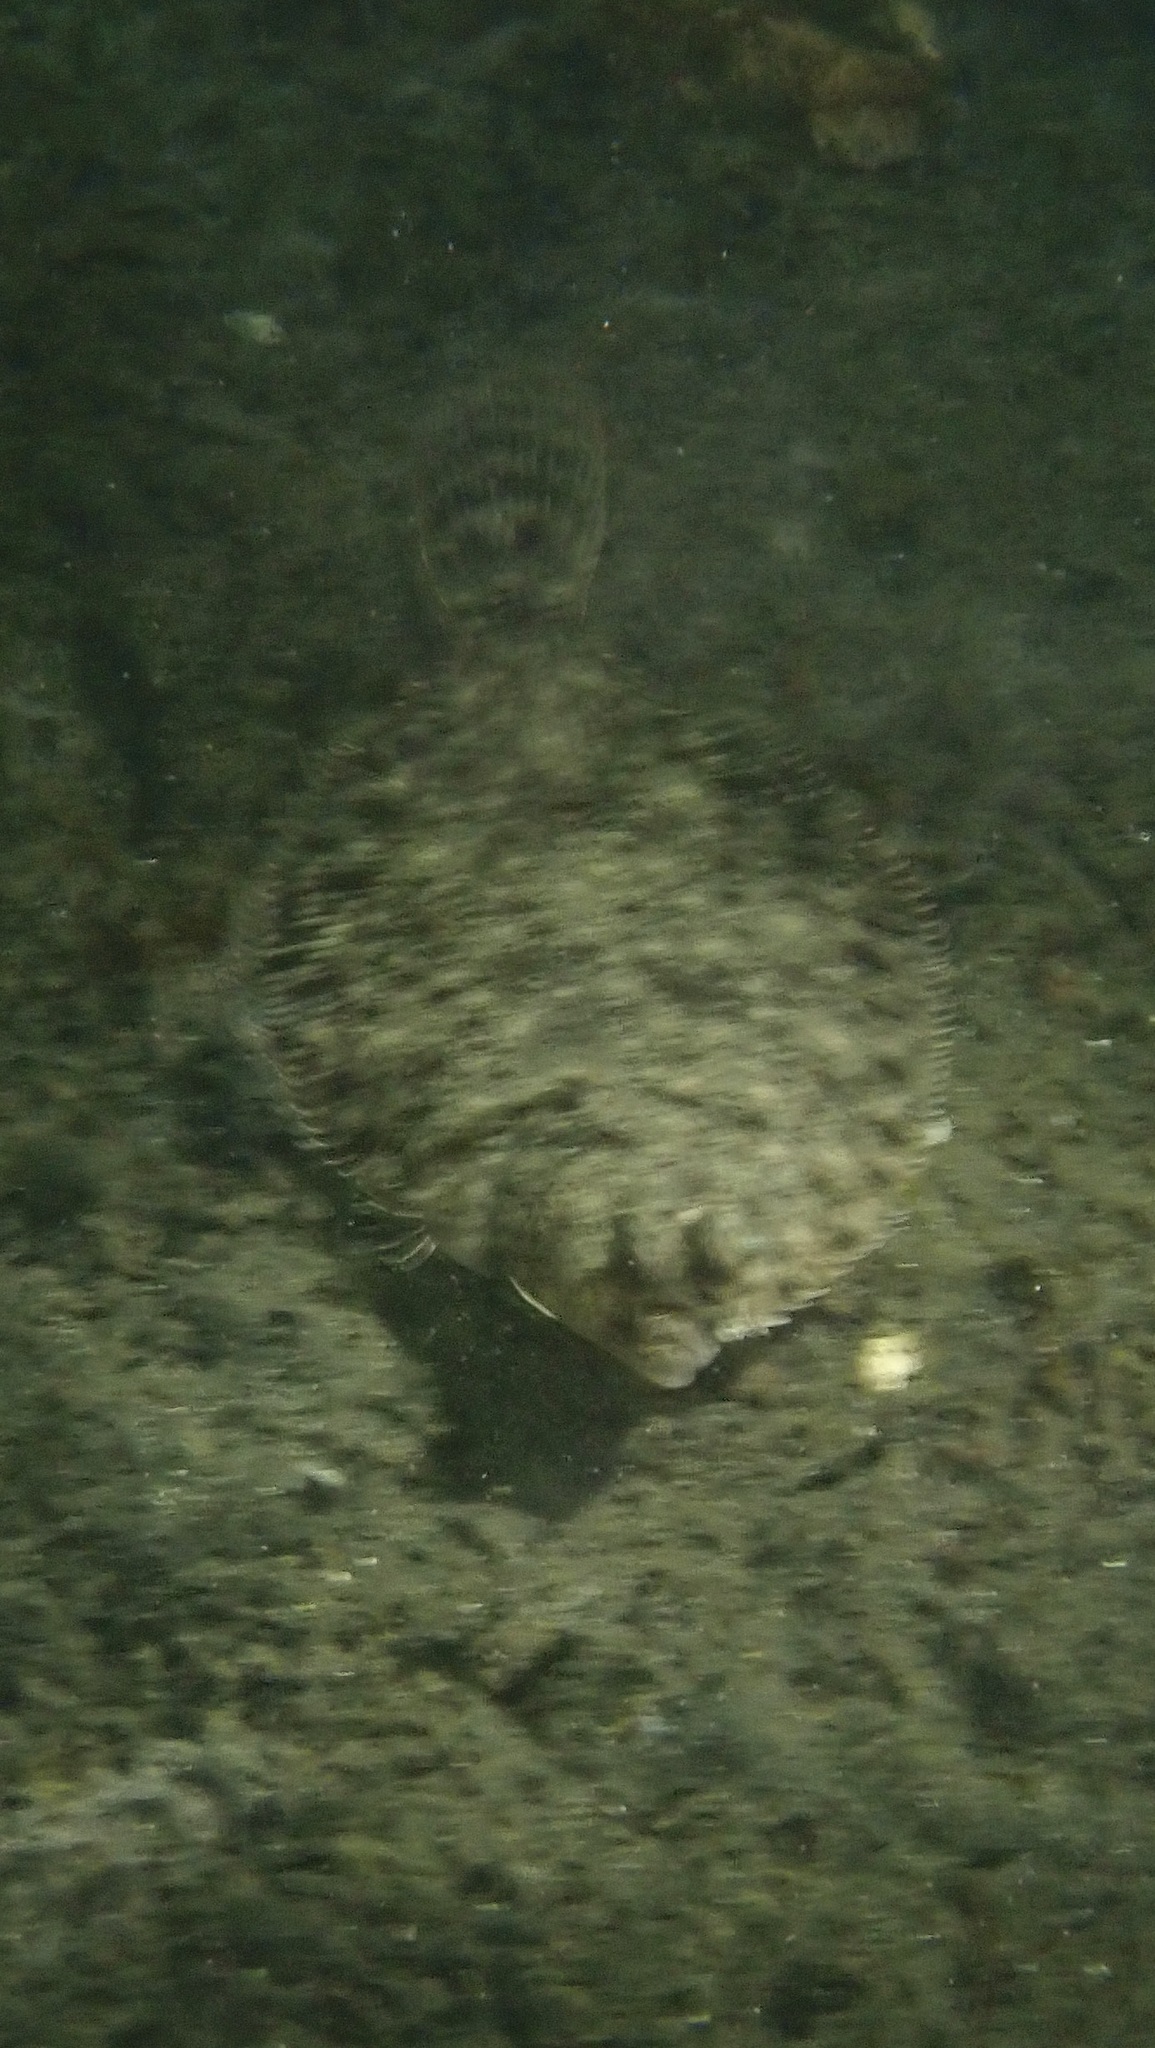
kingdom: Animalia
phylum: Chordata
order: Pleuronectiformes
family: Pleuronectidae
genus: Platichthys
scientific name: Platichthys flesus
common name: European flounder
